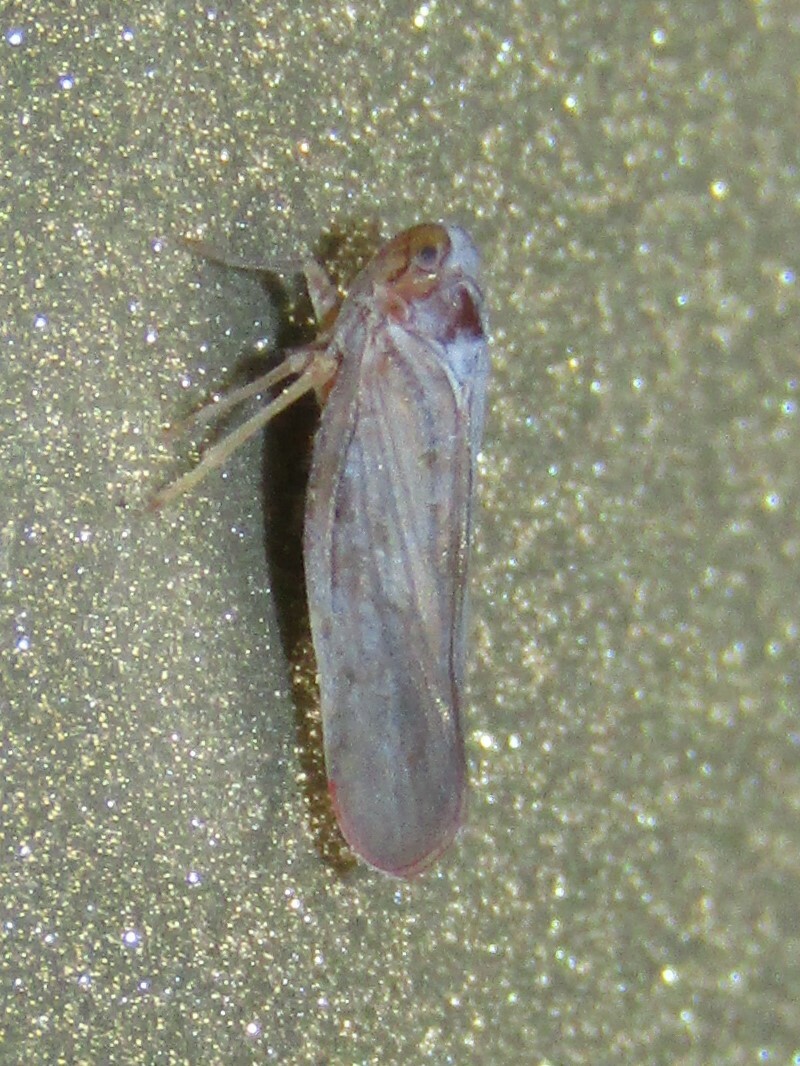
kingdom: Animalia
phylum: Arthropoda
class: Insecta
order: Hemiptera
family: Derbidae
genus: Omolicna
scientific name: Omolicna mcateei
